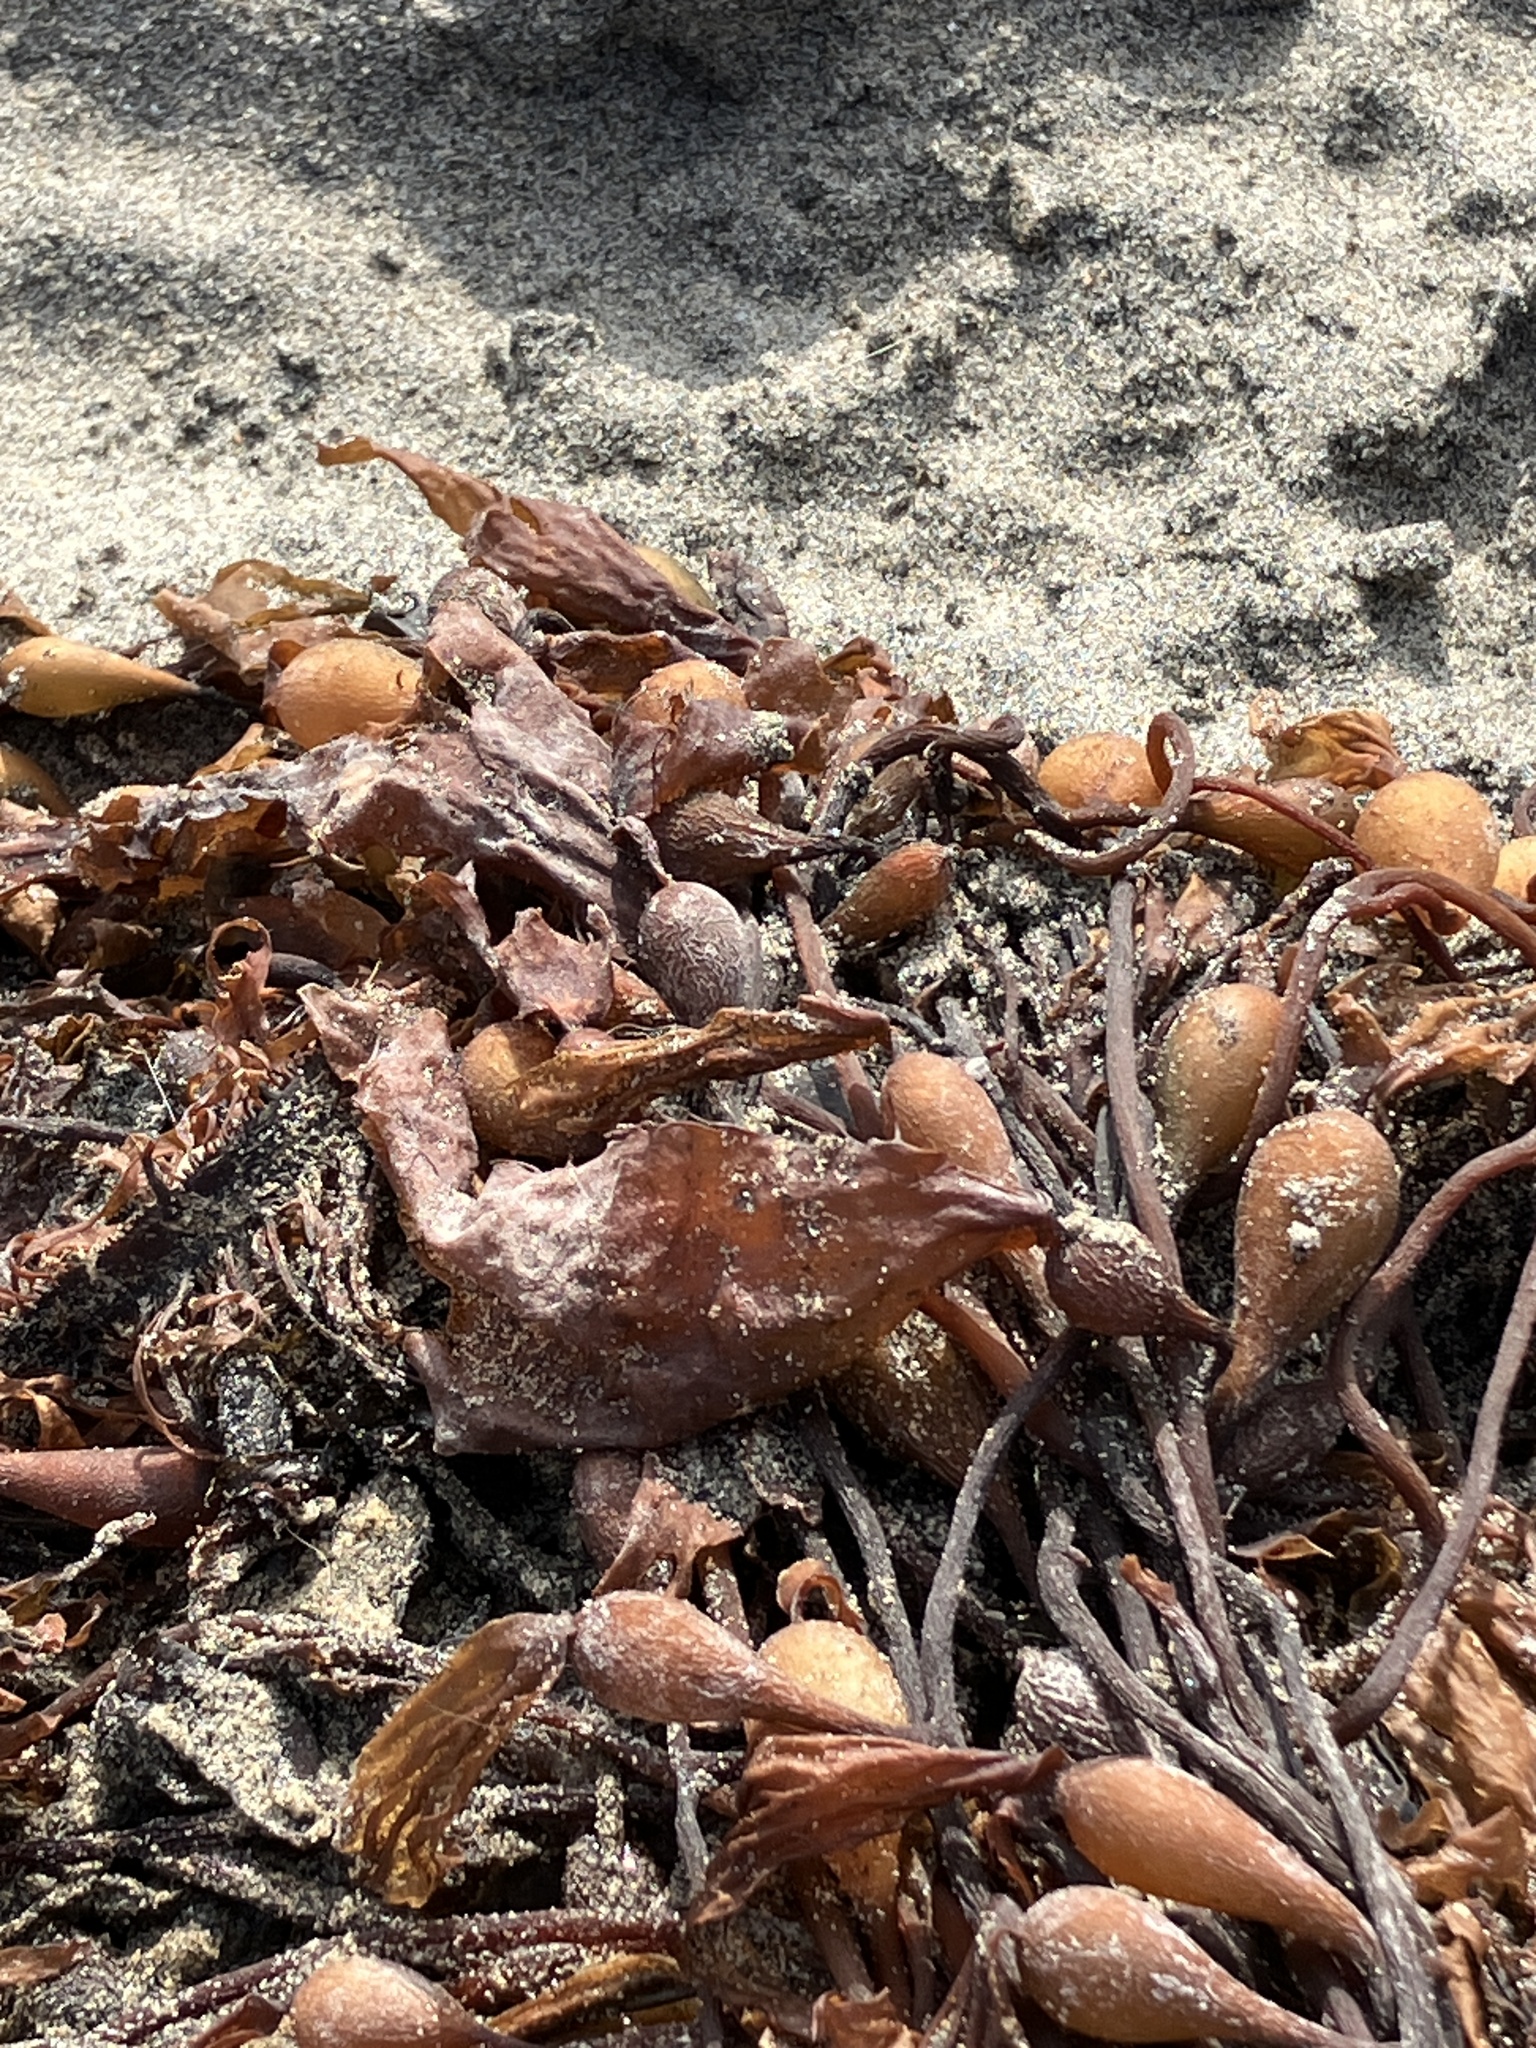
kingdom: Chromista
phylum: Ochrophyta
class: Phaeophyceae
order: Laminariales
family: Laminariaceae
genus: Macrocystis
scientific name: Macrocystis pyrifera
